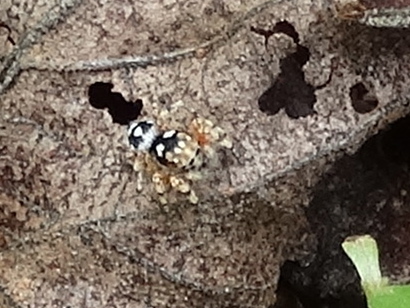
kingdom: Animalia
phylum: Arthropoda
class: Arachnida
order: Araneae
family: Salticidae
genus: Habronattus
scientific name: Habronattus fallax
